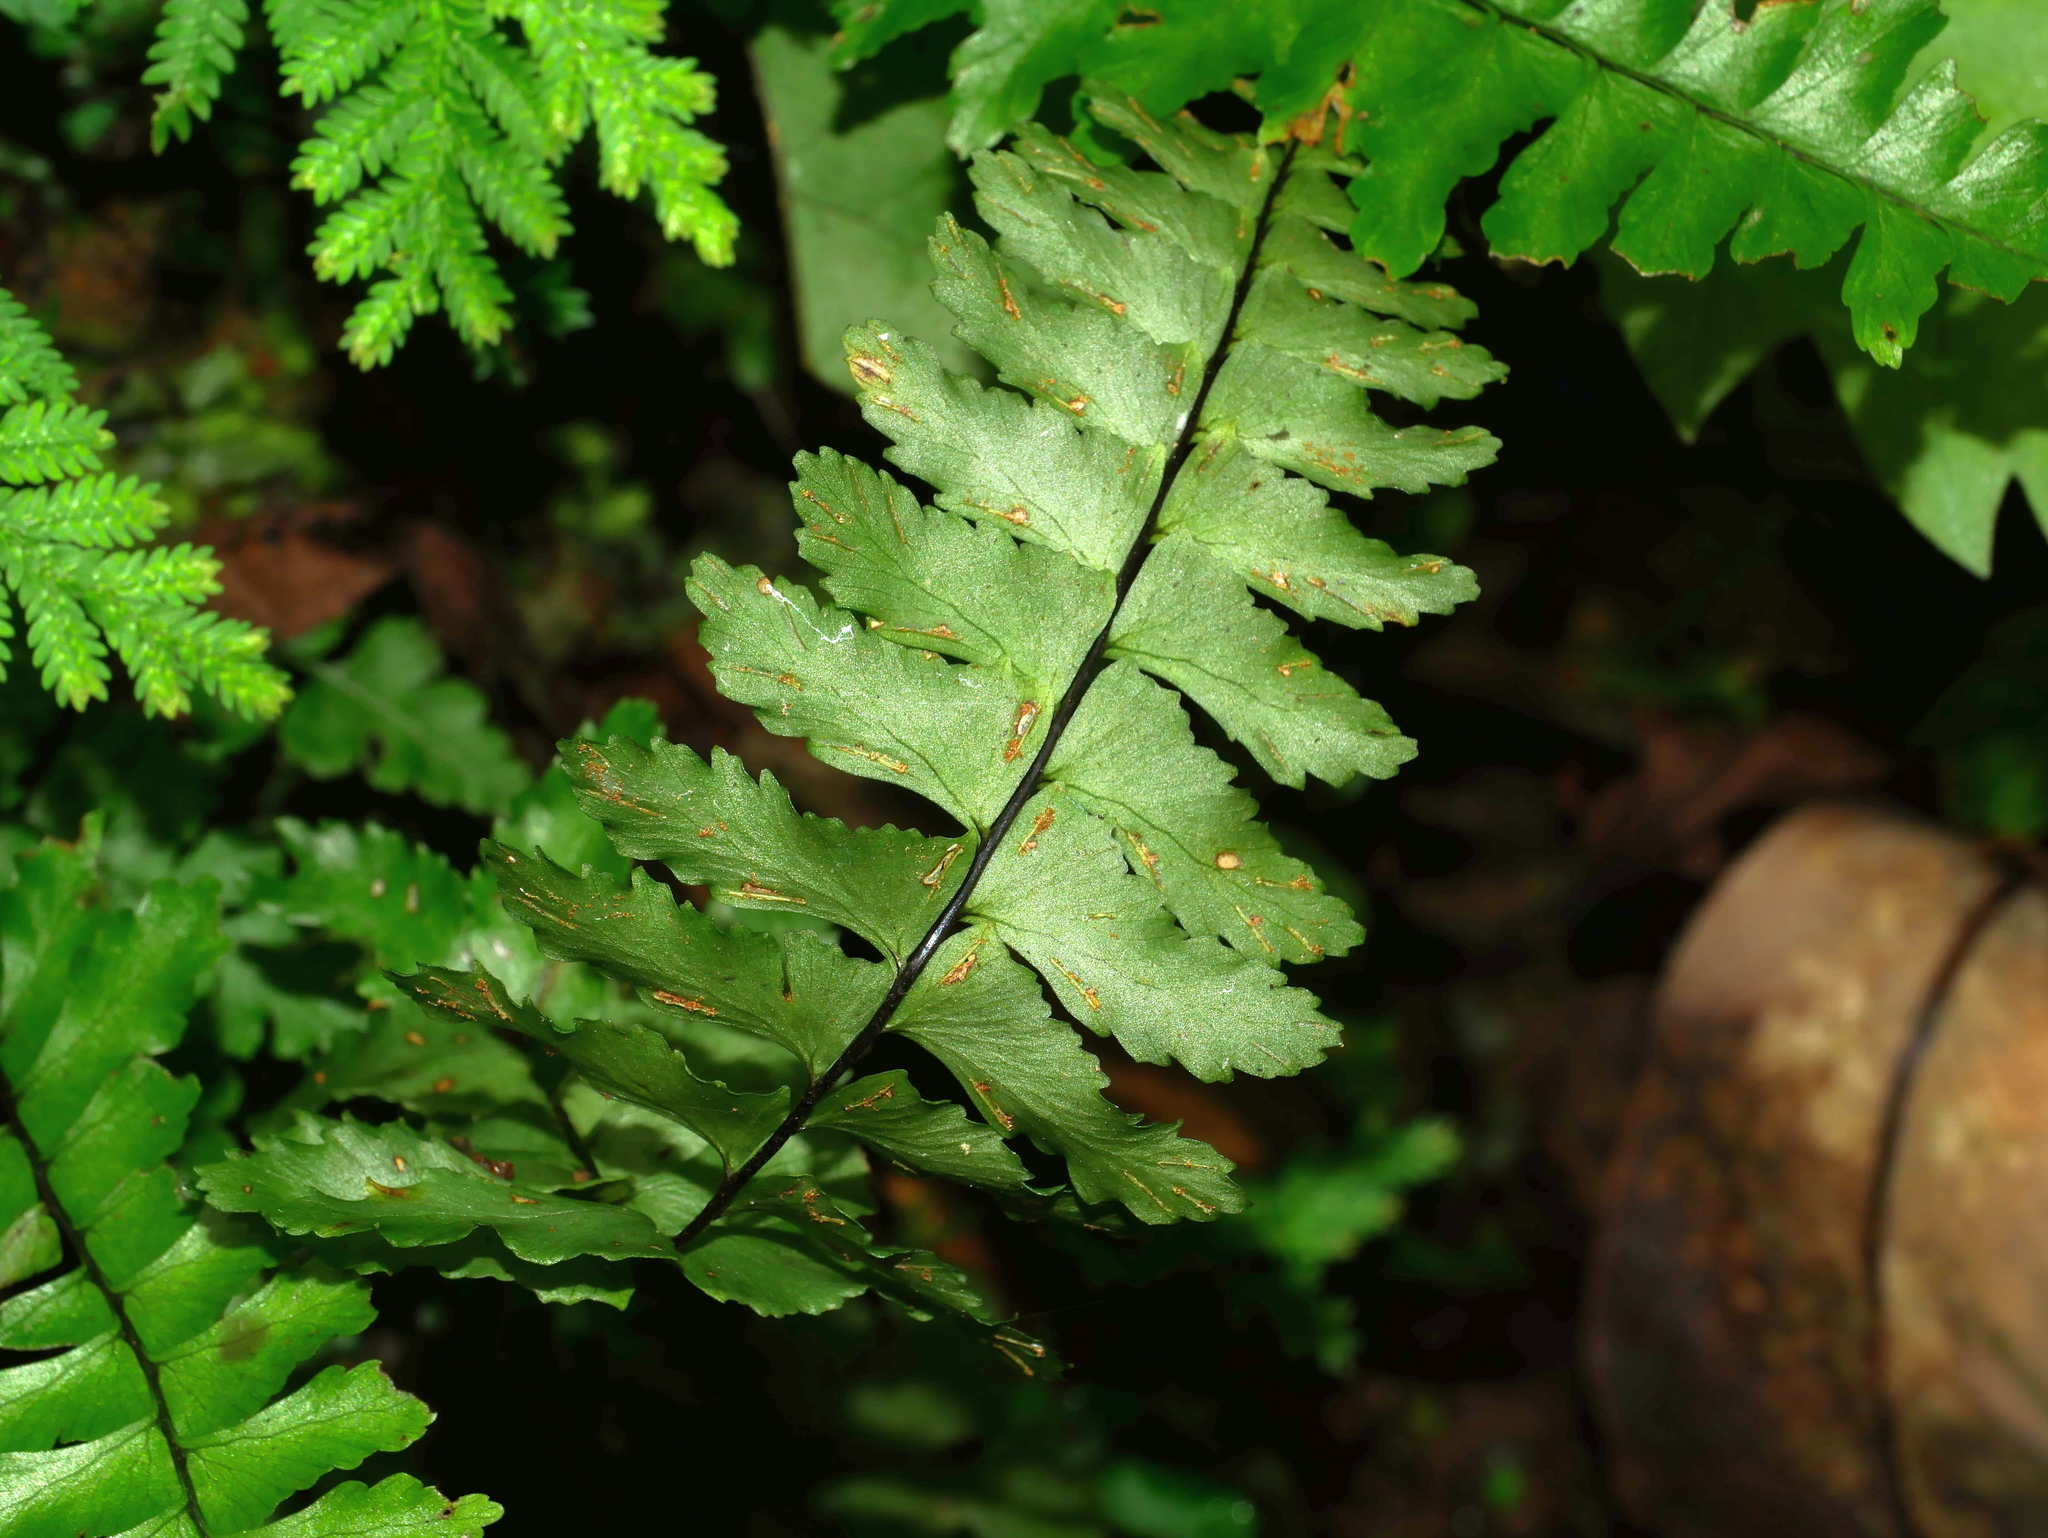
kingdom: Plantae
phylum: Tracheophyta
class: Polypodiopsida
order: Polypodiales
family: Aspleniaceae
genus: Hymenasplenium
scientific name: Hymenasplenium apogamum
